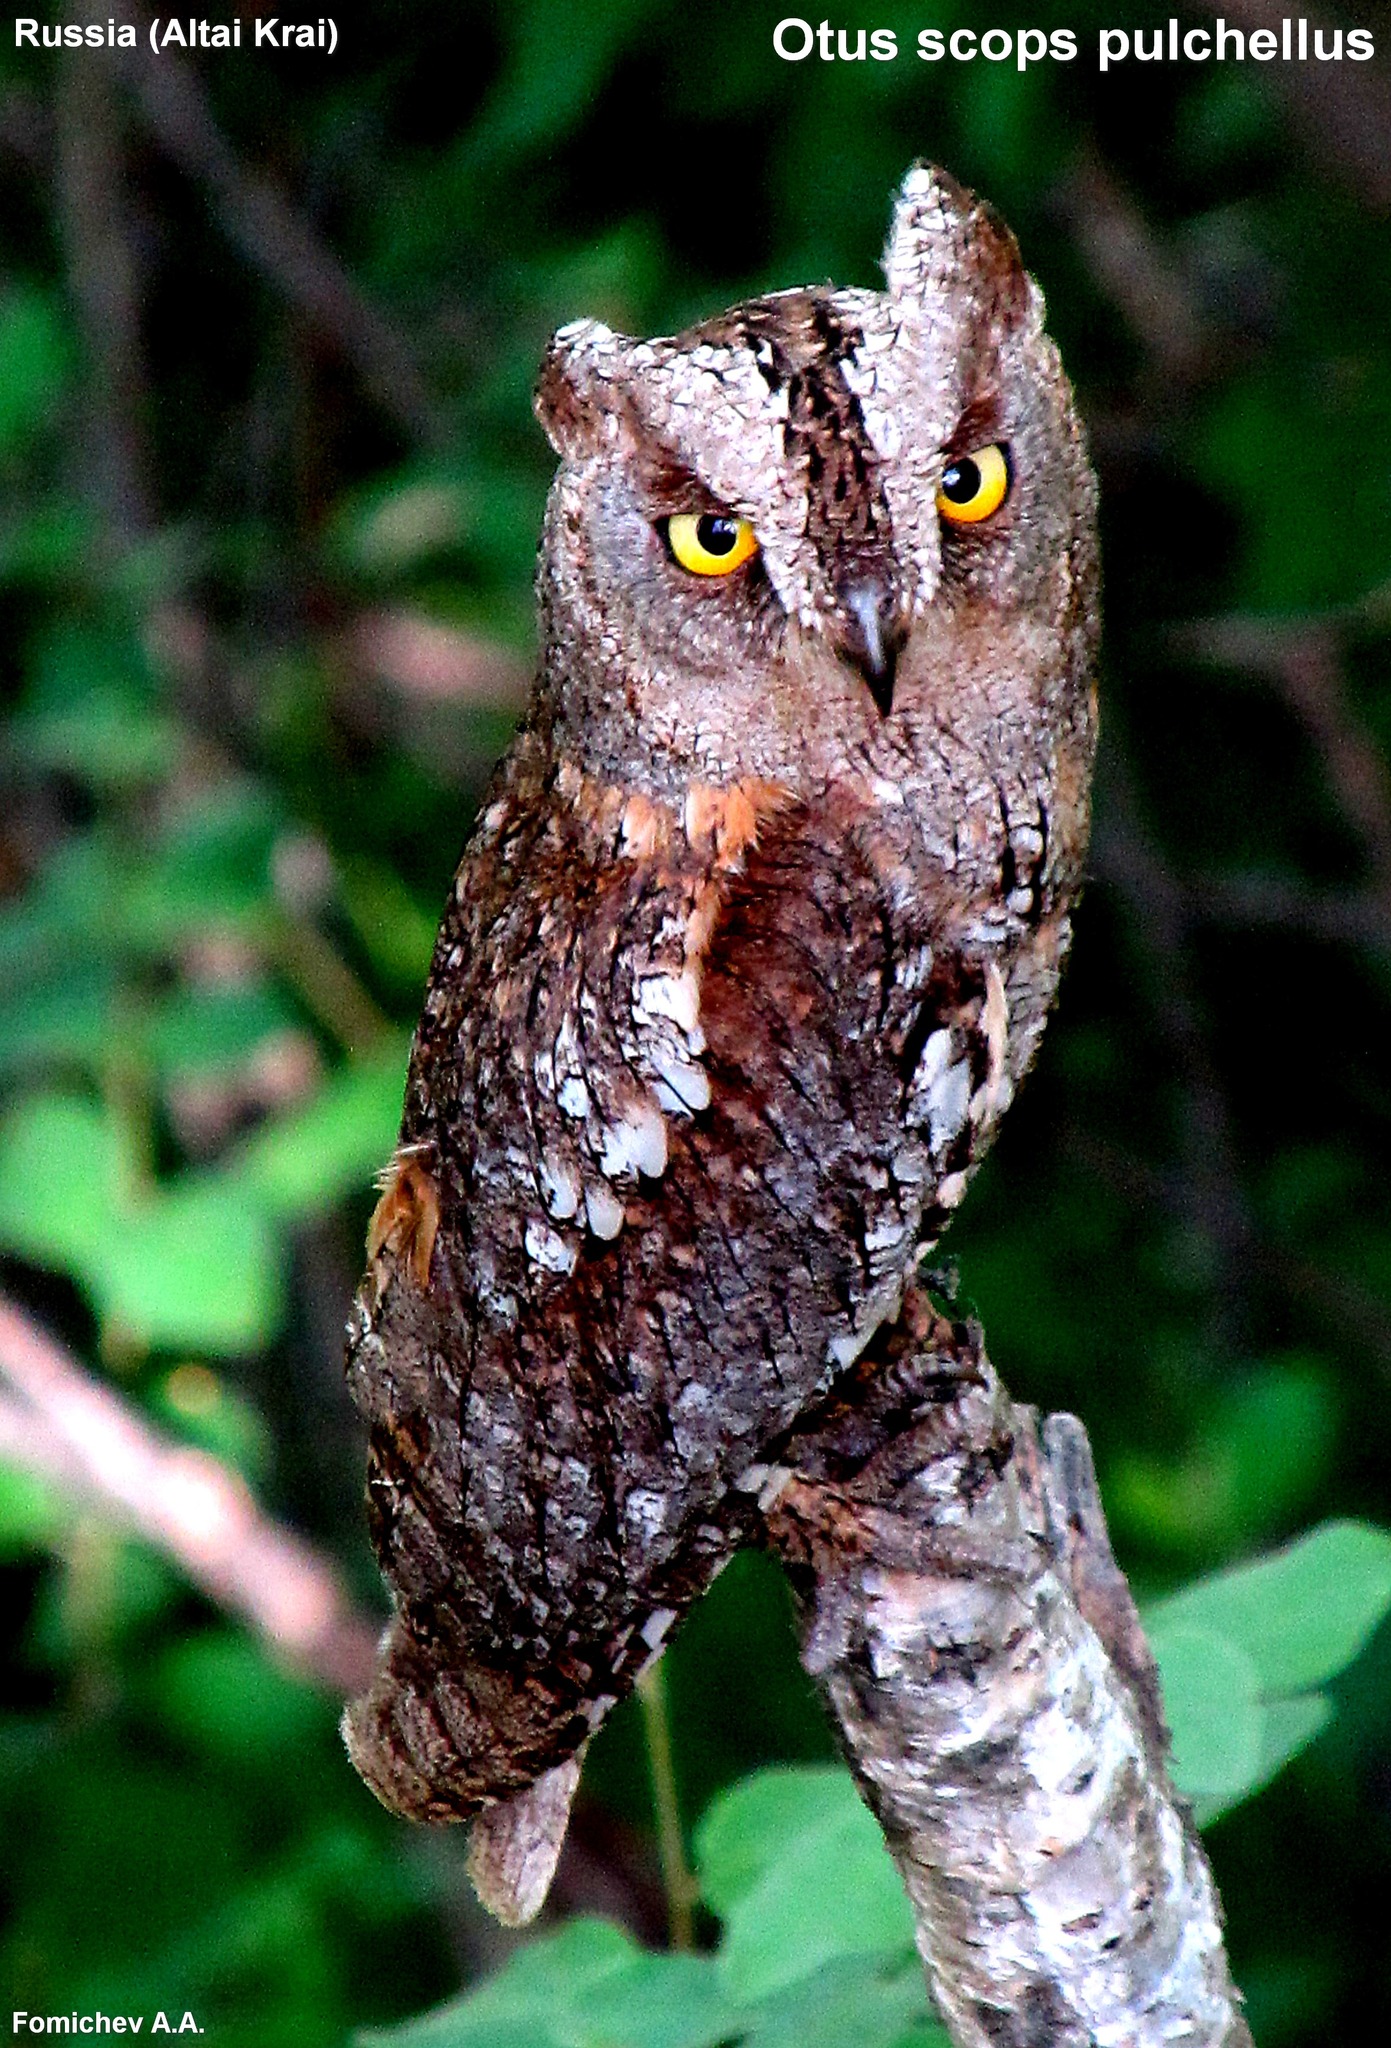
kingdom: Animalia
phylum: Chordata
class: Aves
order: Strigiformes
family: Strigidae
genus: Otus
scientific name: Otus scops
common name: Eurasian scops owl
